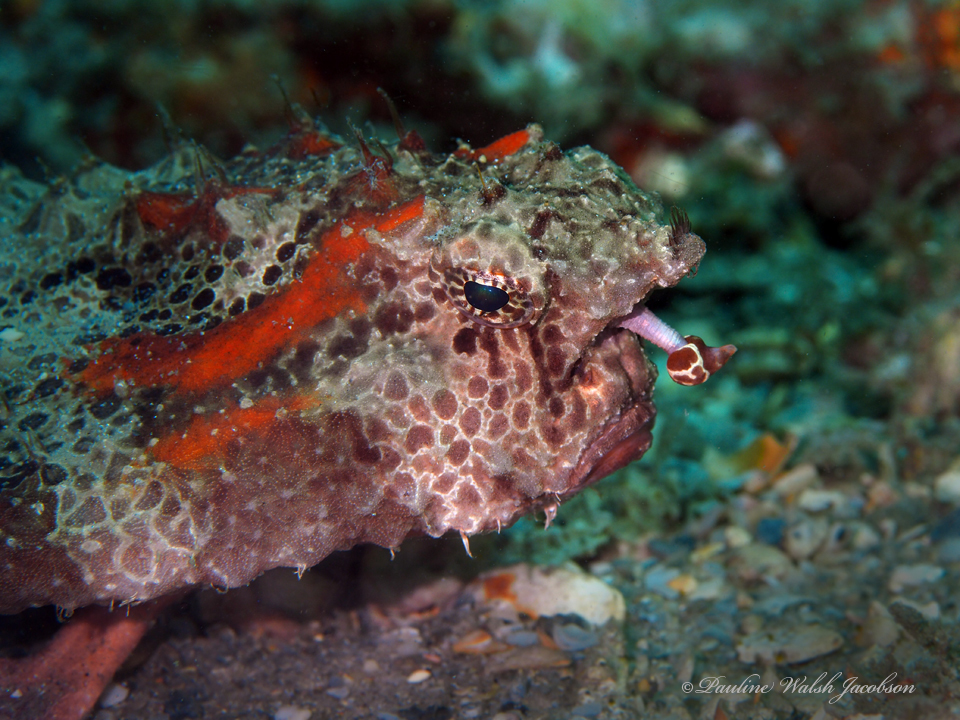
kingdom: Animalia
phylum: Chordata
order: Lophiiformes
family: Ogcocephalidae
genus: Ogcocephalus
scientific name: Ogcocephalus cubifrons
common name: Polka-dot batfish
